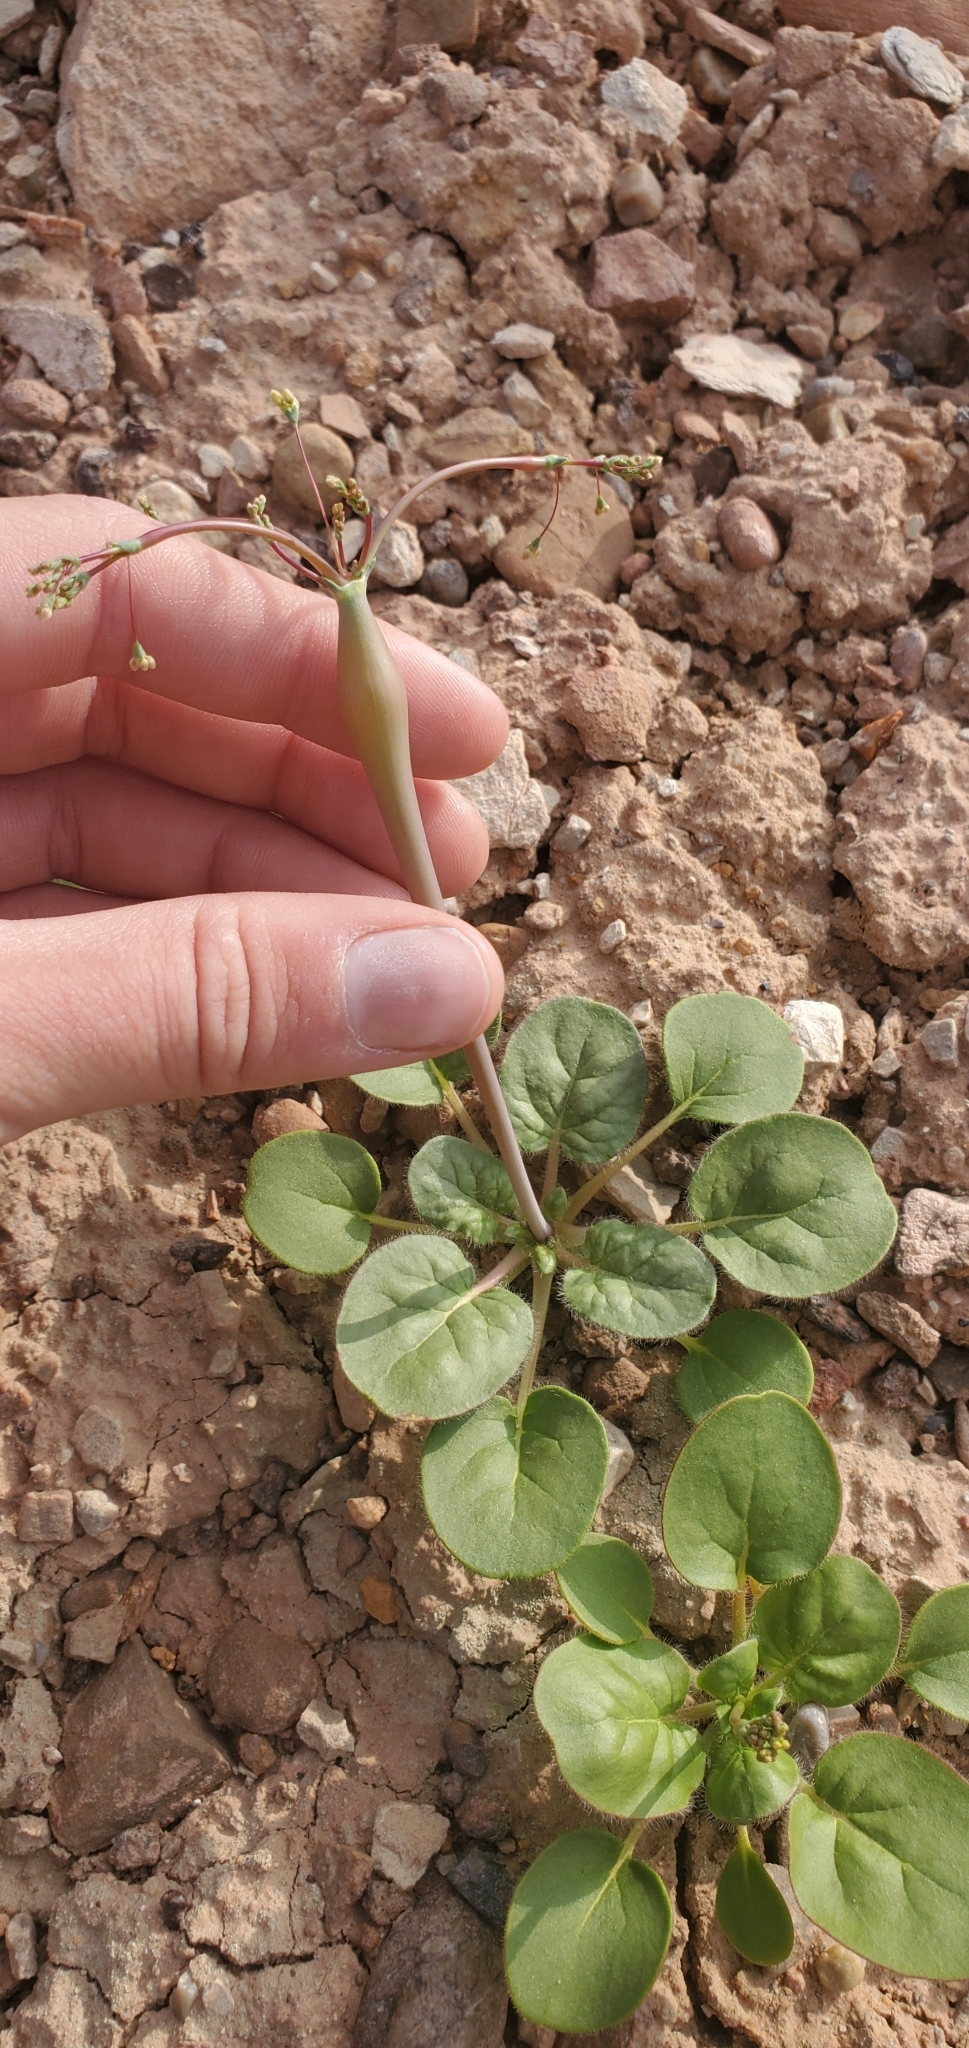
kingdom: Plantae
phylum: Tracheophyta
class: Magnoliopsida
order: Caryophyllales
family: Polygonaceae
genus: Eriogonum
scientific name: Eriogonum inflatum
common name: Desert trumpet
